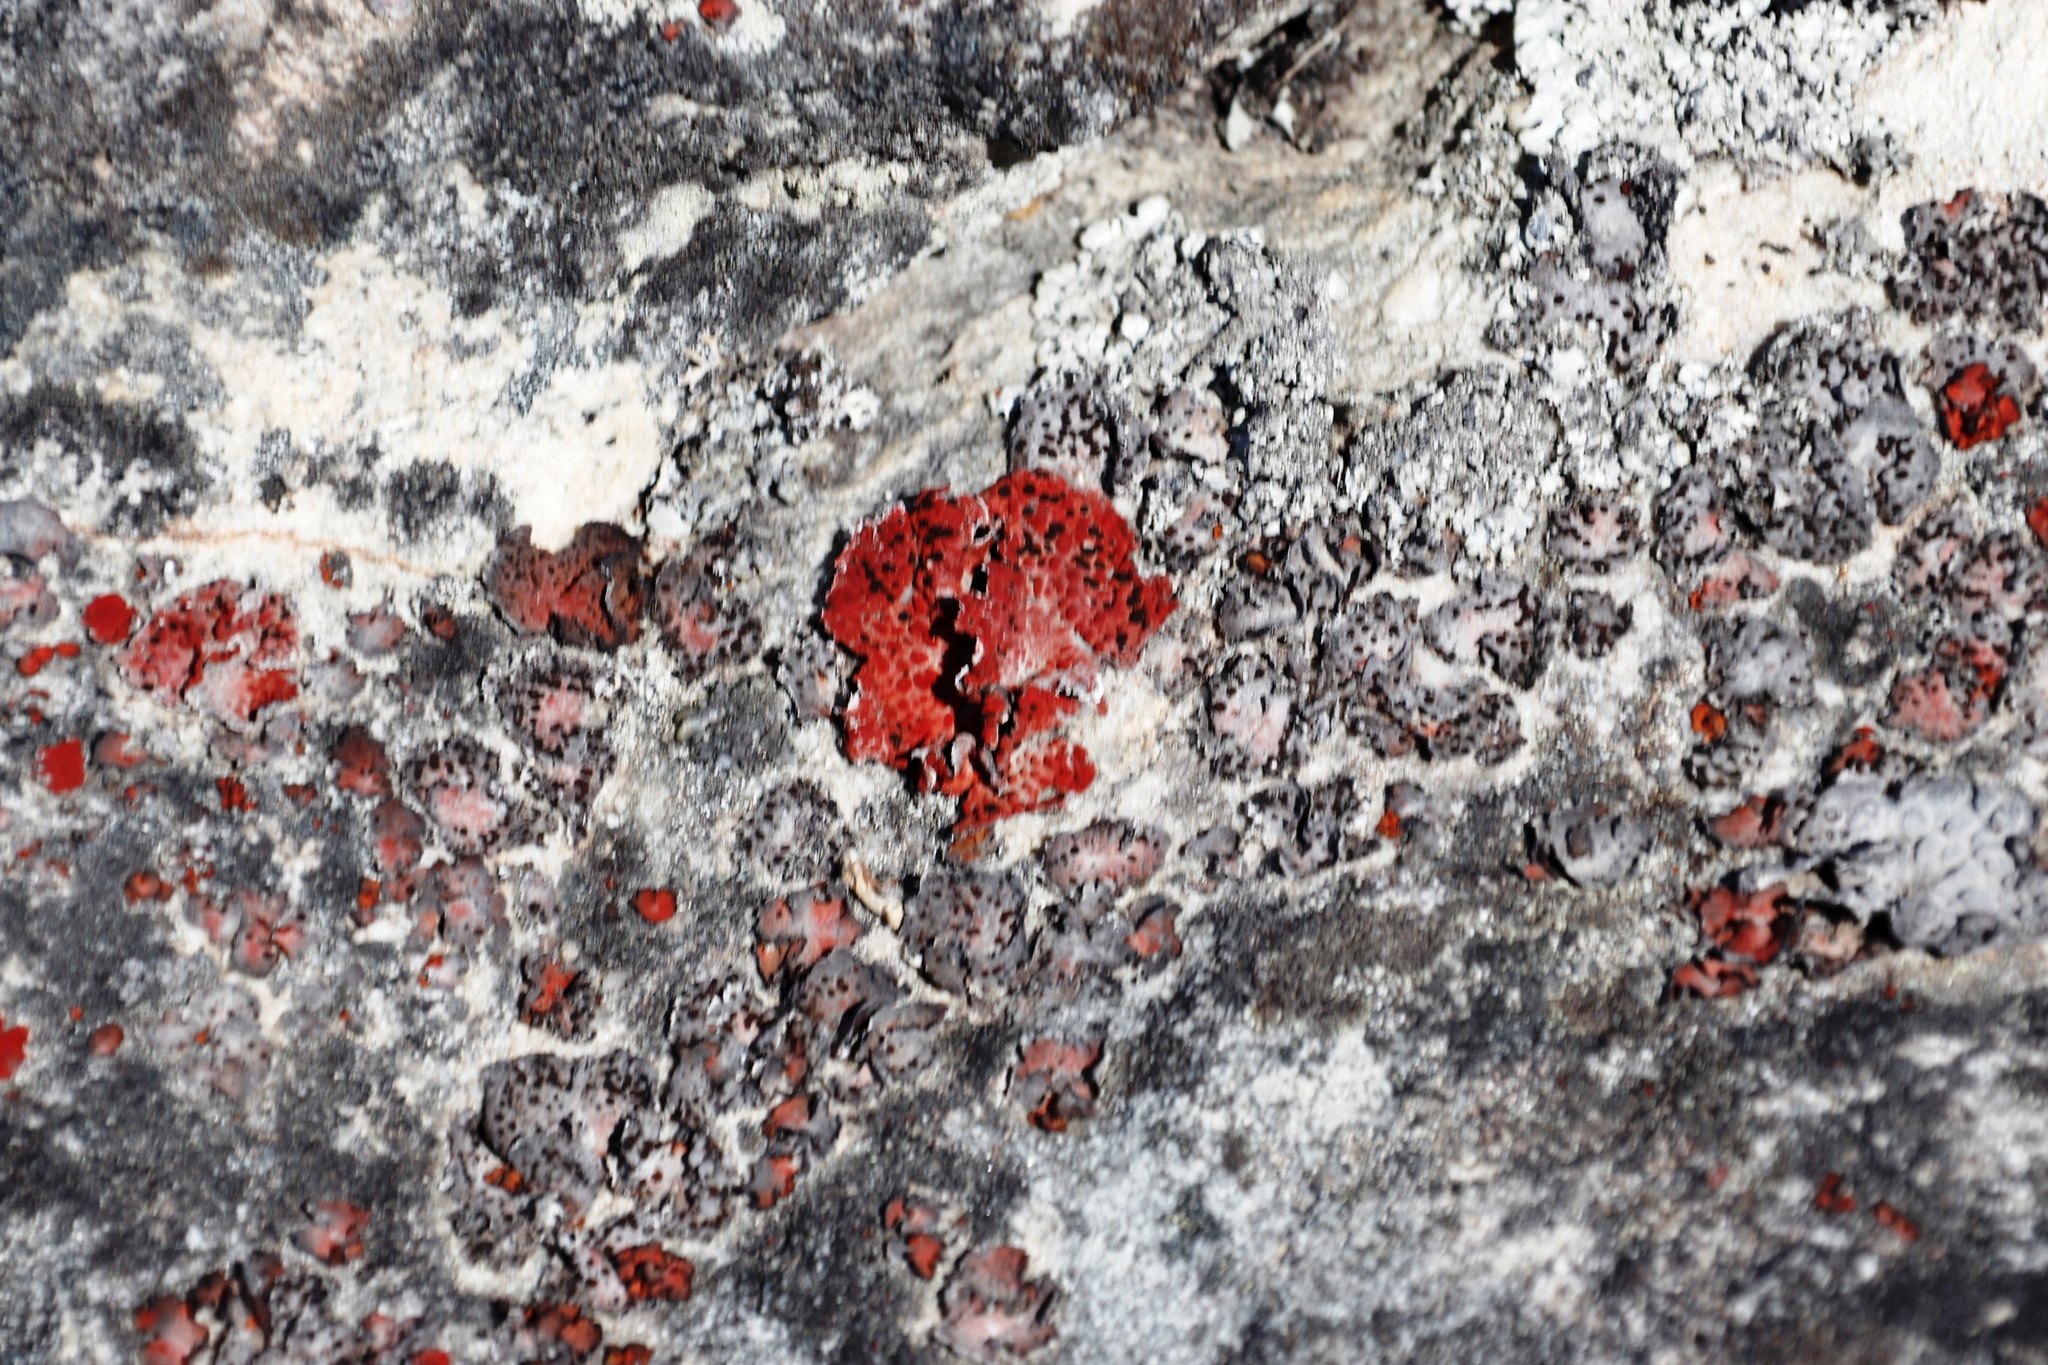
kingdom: Fungi
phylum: Ascomycota
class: Lecanoromycetes
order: Umbilicariales
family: Umbilicariaceae
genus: Lasallia
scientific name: Lasallia rubiginosa
